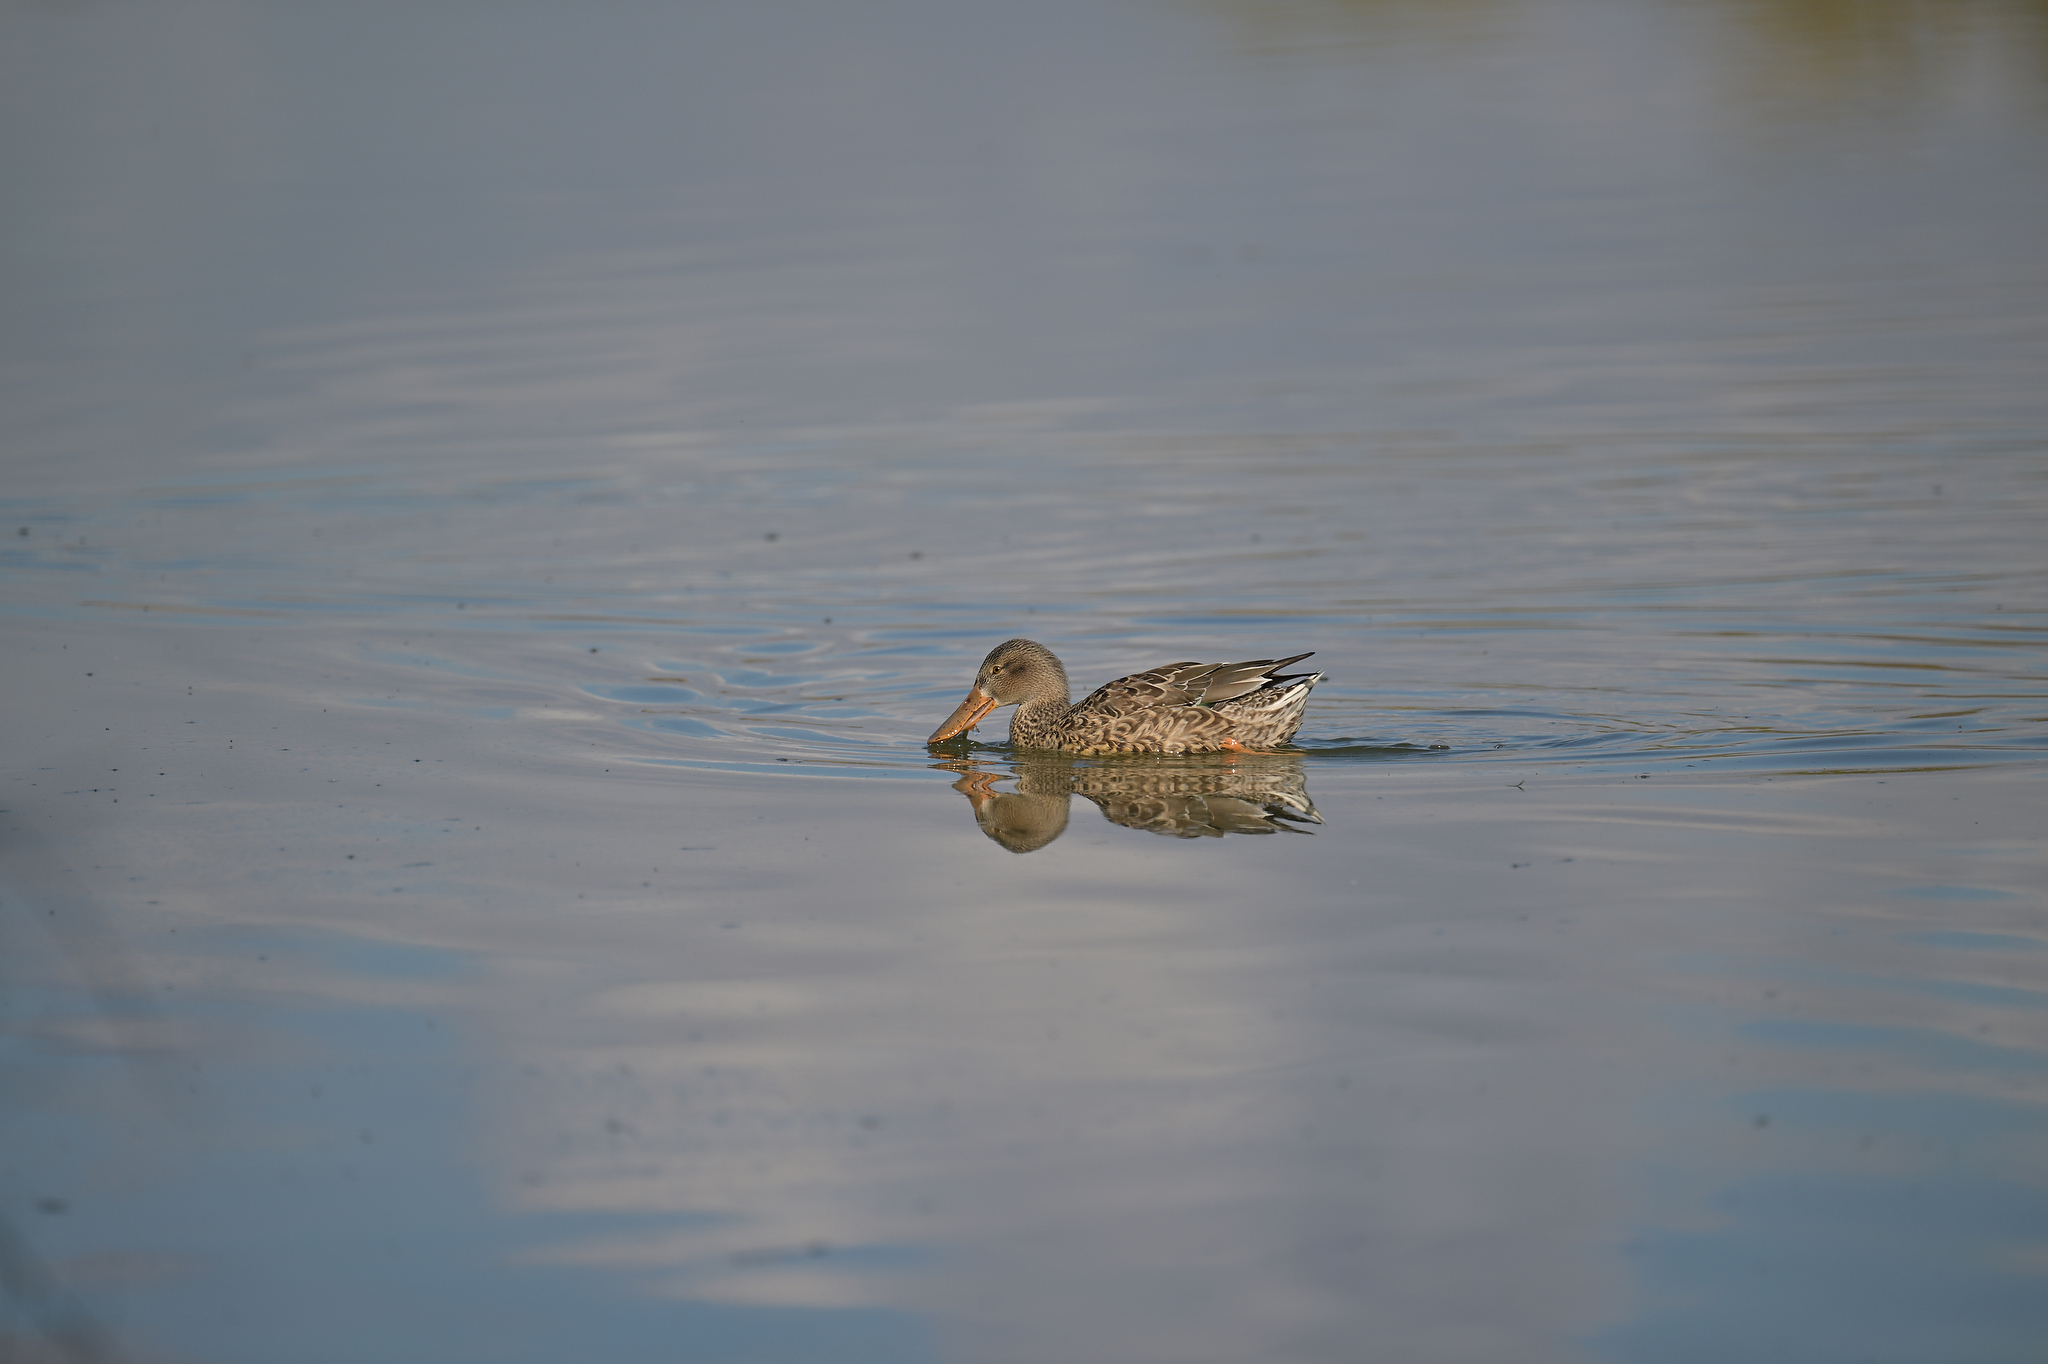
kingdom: Animalia
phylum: Chordata
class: Aves
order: Anseriformes
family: Anatidae
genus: Spatula
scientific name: Spatula clypeata
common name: Northern shoveler
